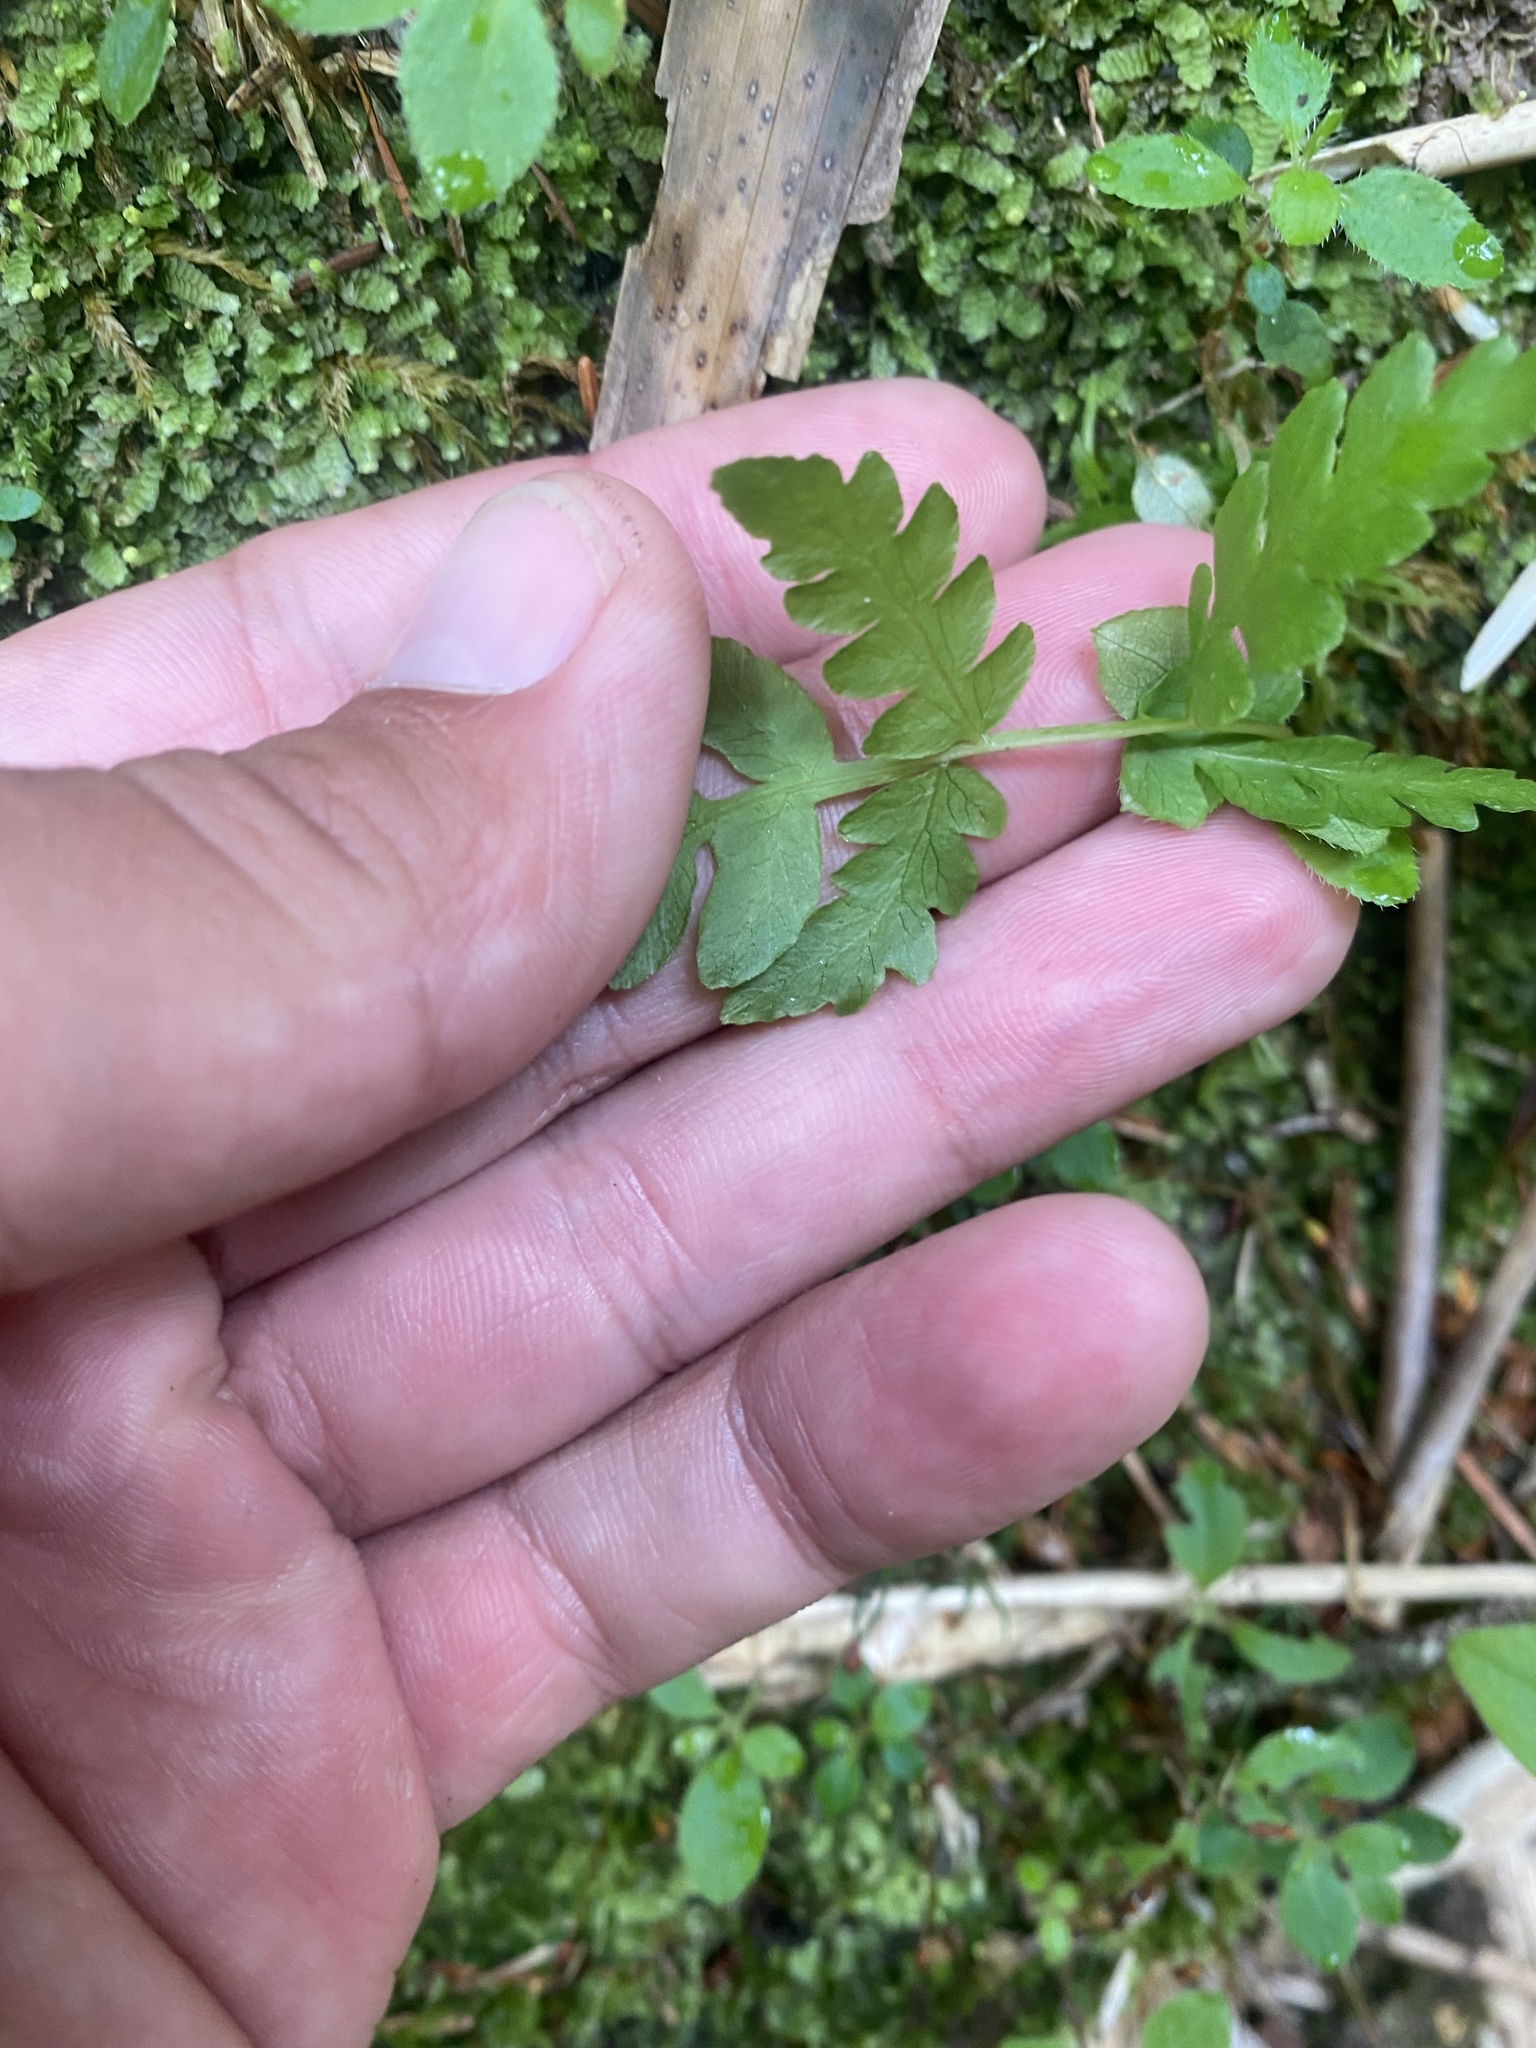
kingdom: Plantae
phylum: Tracheophyta
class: Polypodiopsida
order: Osmundales
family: Osmundaceae
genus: Osmundastrum
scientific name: Osmundastrum cinnamomeum
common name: Cinnamon fern
